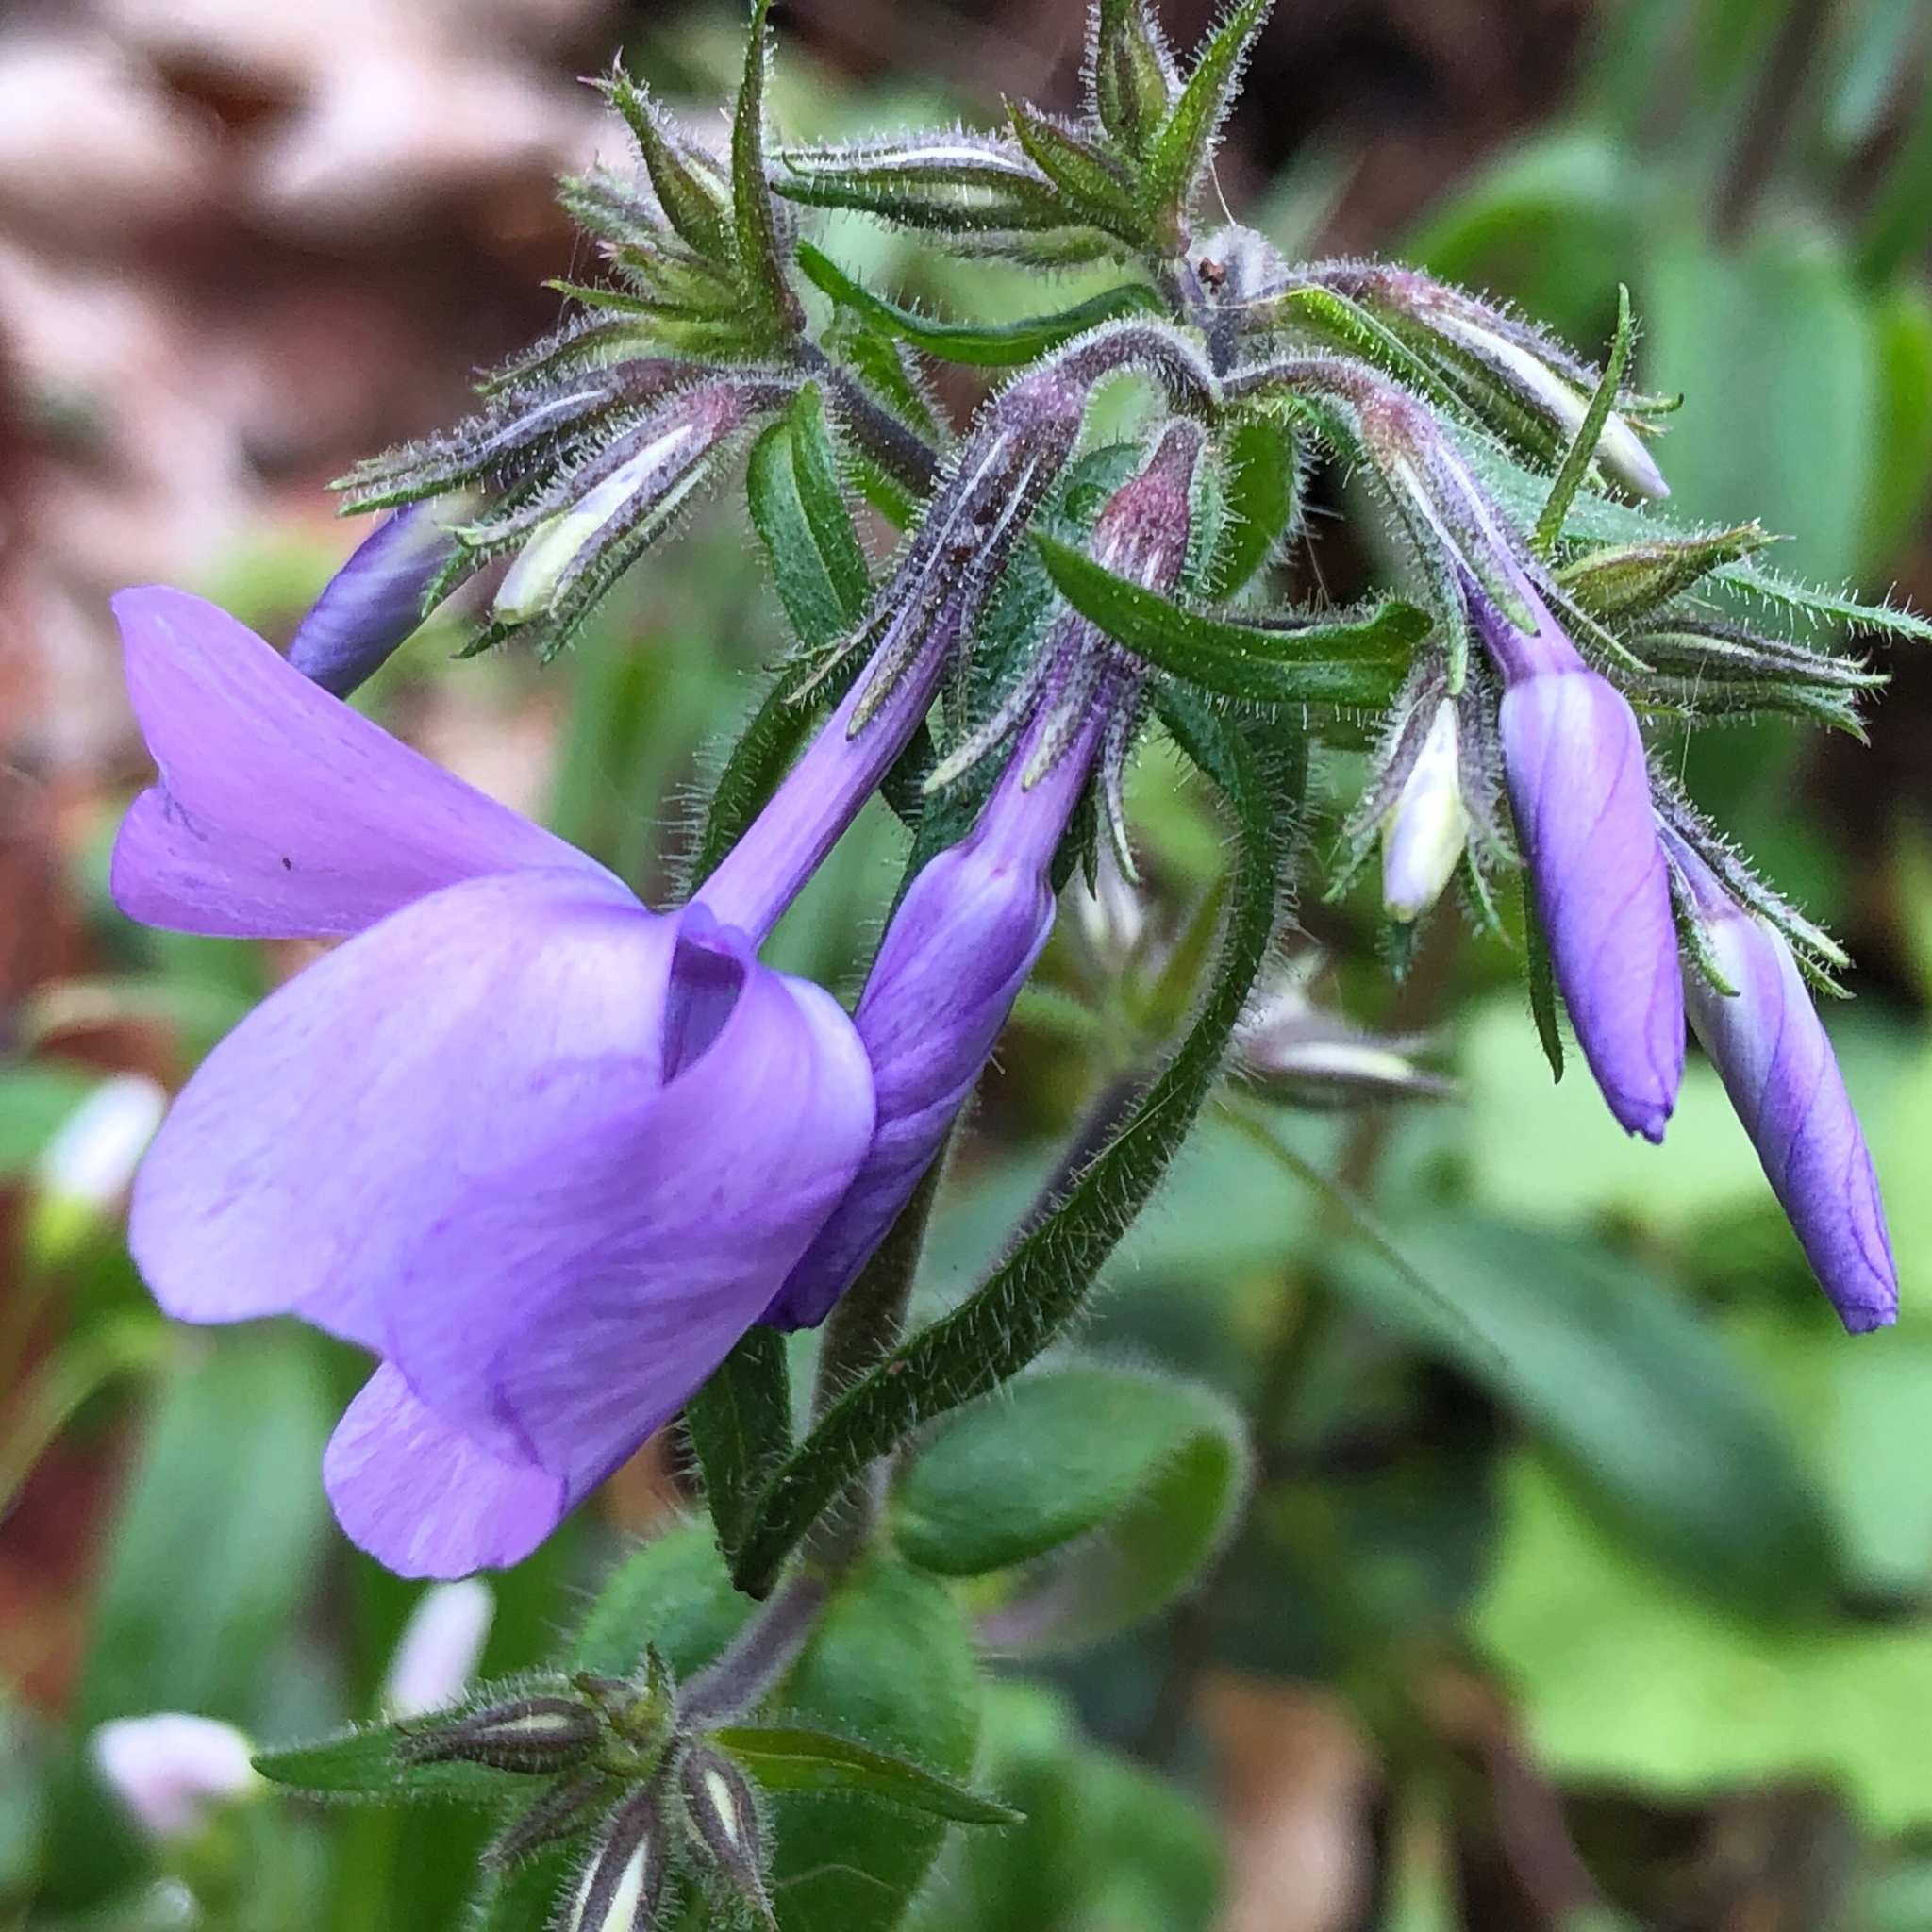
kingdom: Plantae
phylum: Tracheophyta
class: Magnoliopsida
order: Ericales
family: Polemoniaceae
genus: Phlox
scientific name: Phlox divaricata
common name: Blue phlox
